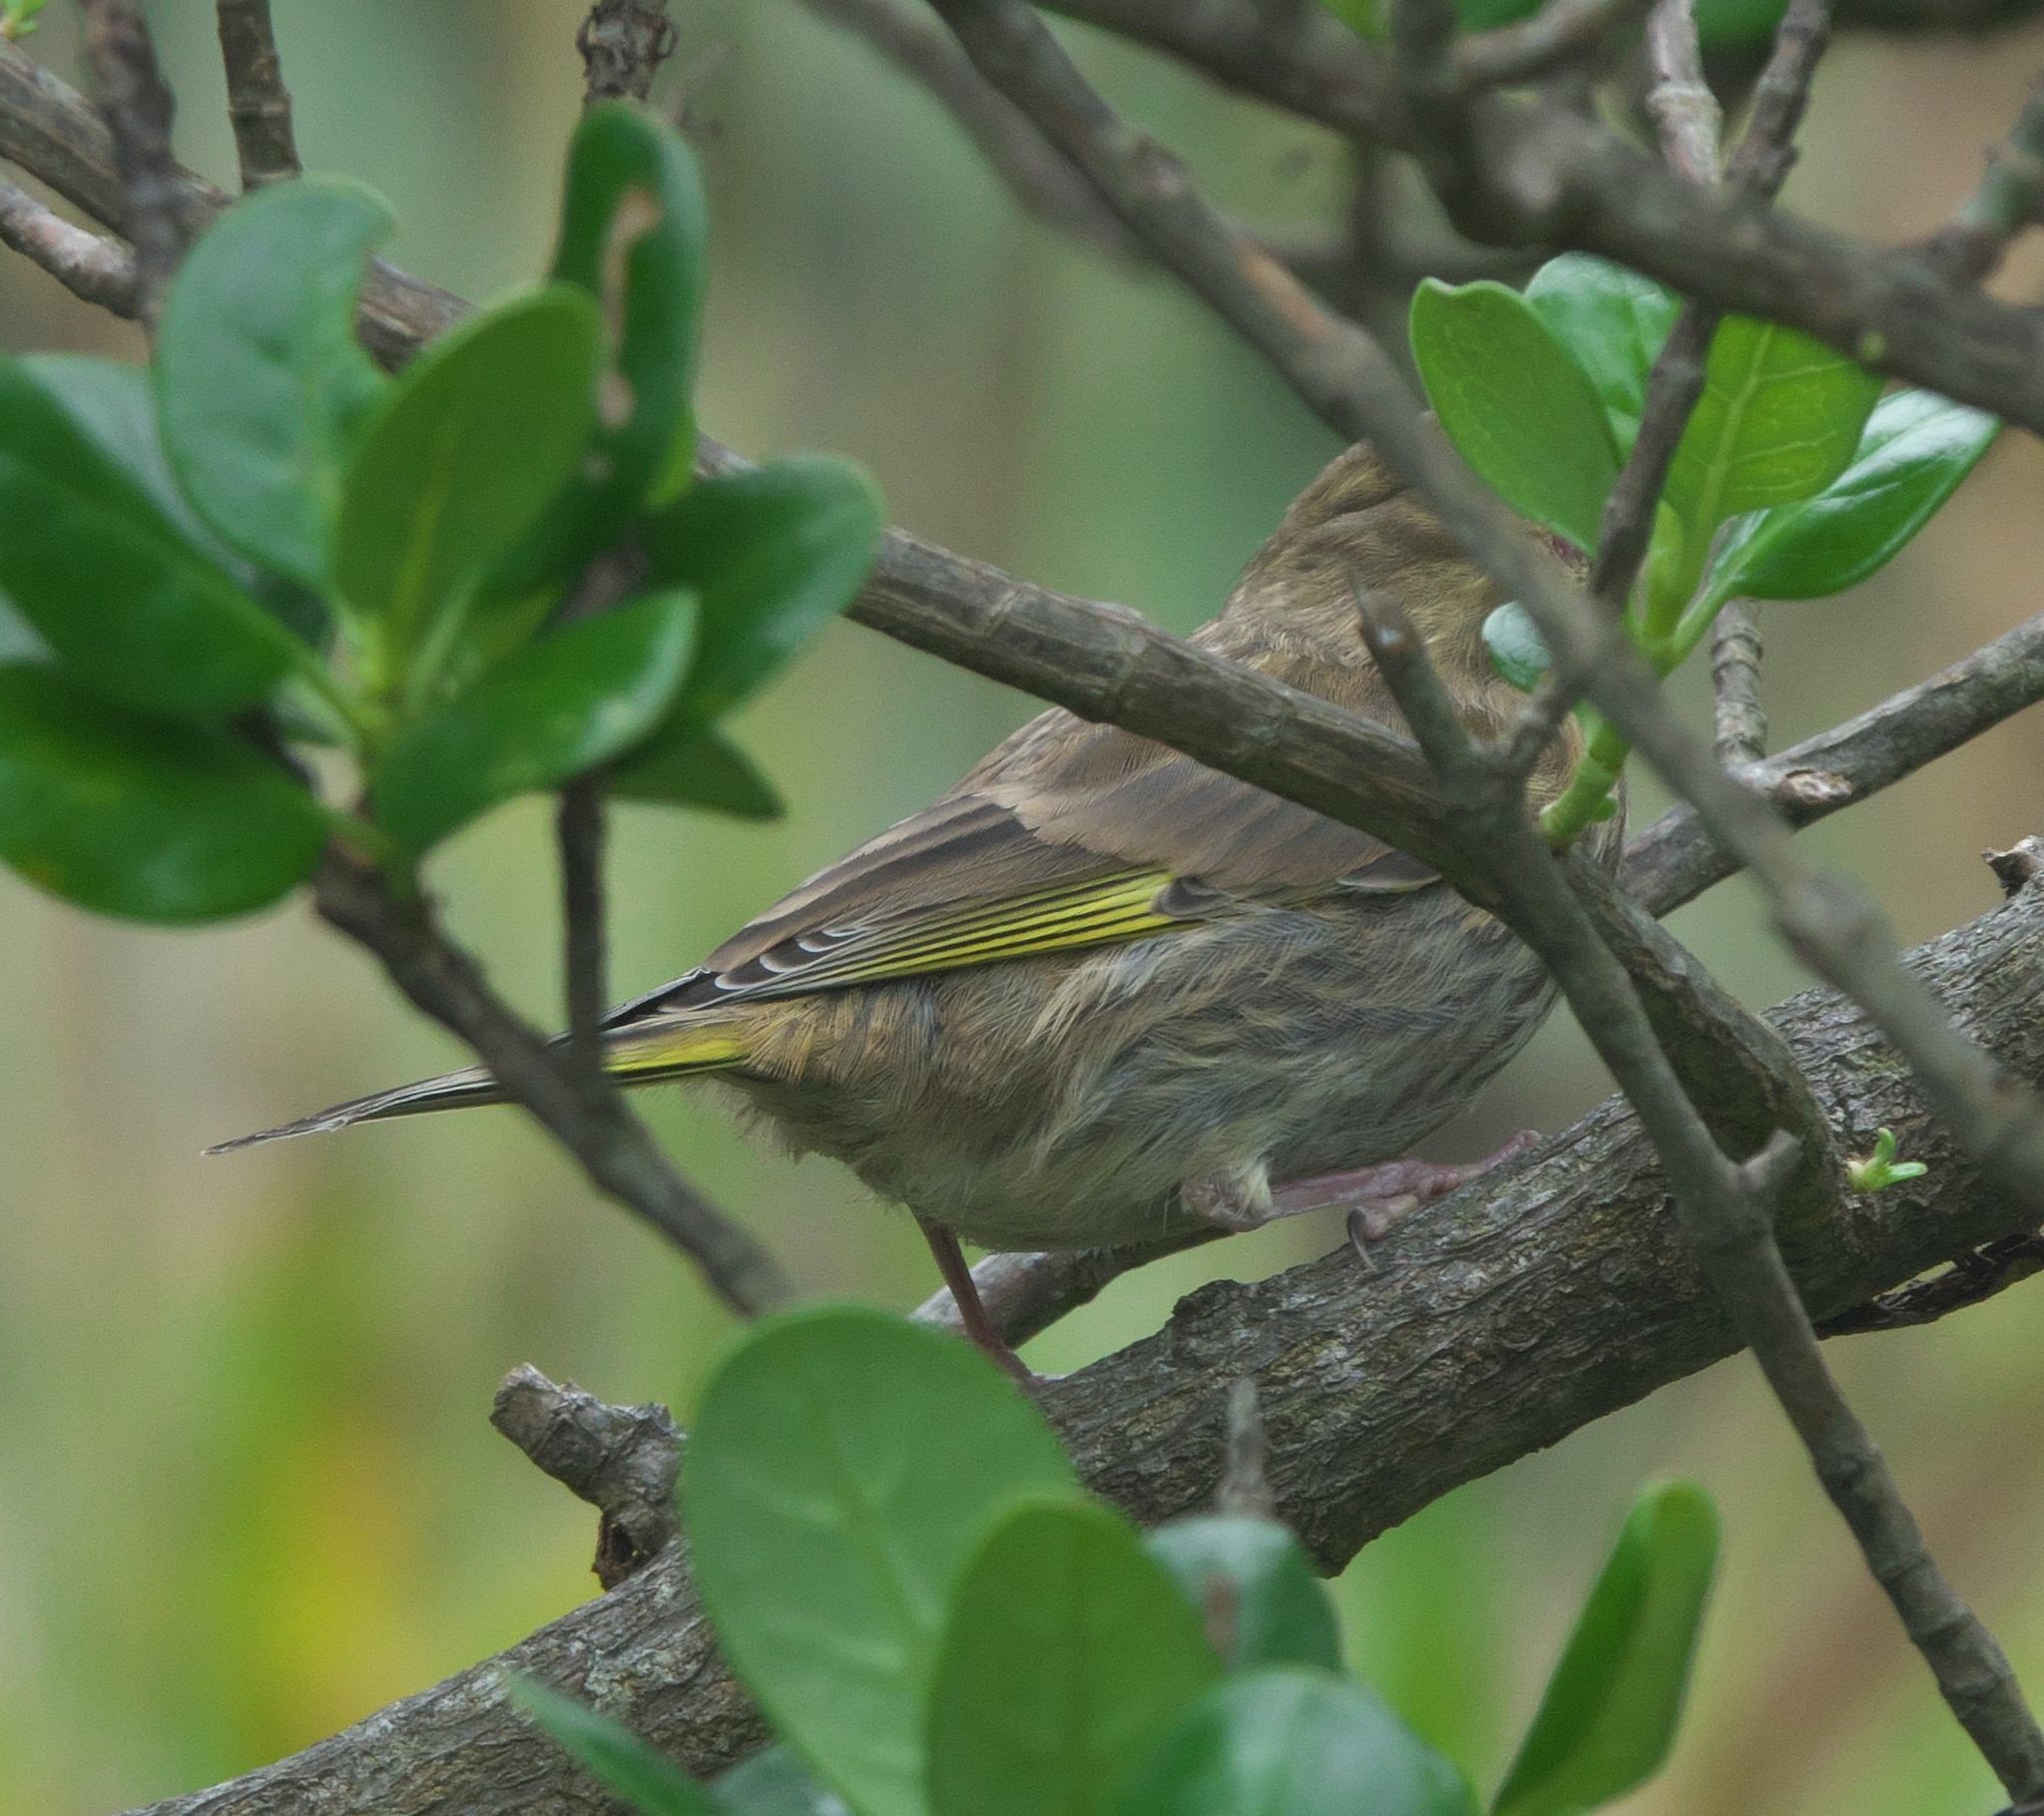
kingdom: Plantae
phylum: Tracheophyta
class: Liliopsida
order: Poales
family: Poaceae
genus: Chloris
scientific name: Chloris chloris
